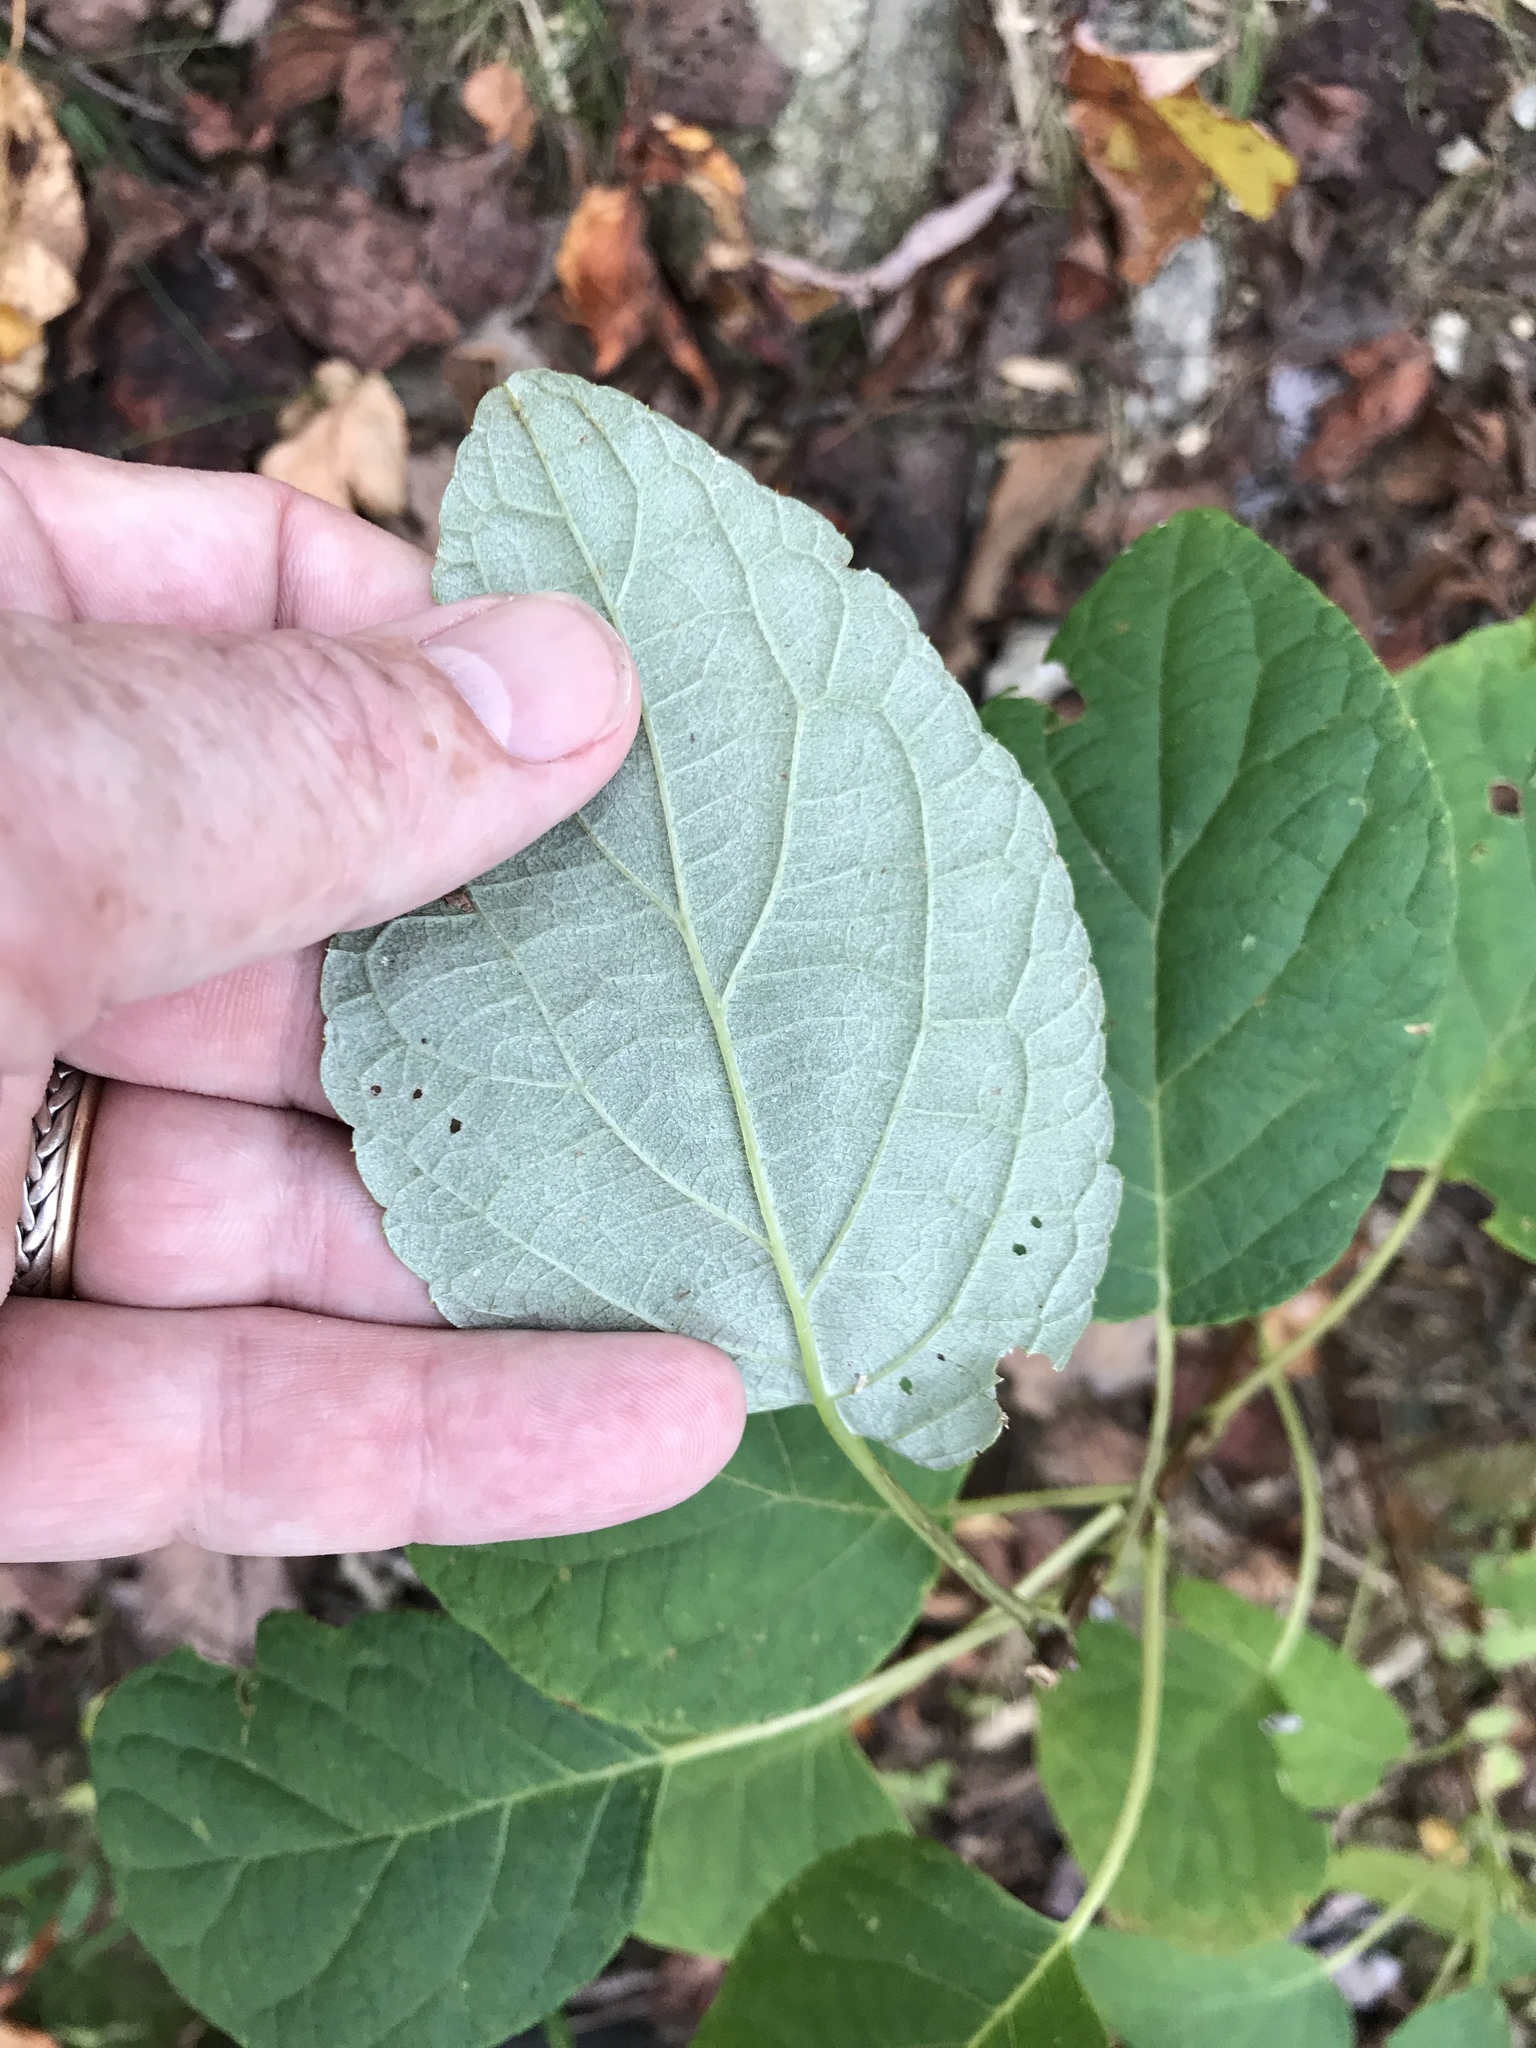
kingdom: Plantae
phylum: Tracheophyta
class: Magnoliopsida
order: Cornales
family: Hydrangeaceae
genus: Hydrangea
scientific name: Hydrangea radiata
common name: Silverleaf hydrangea
